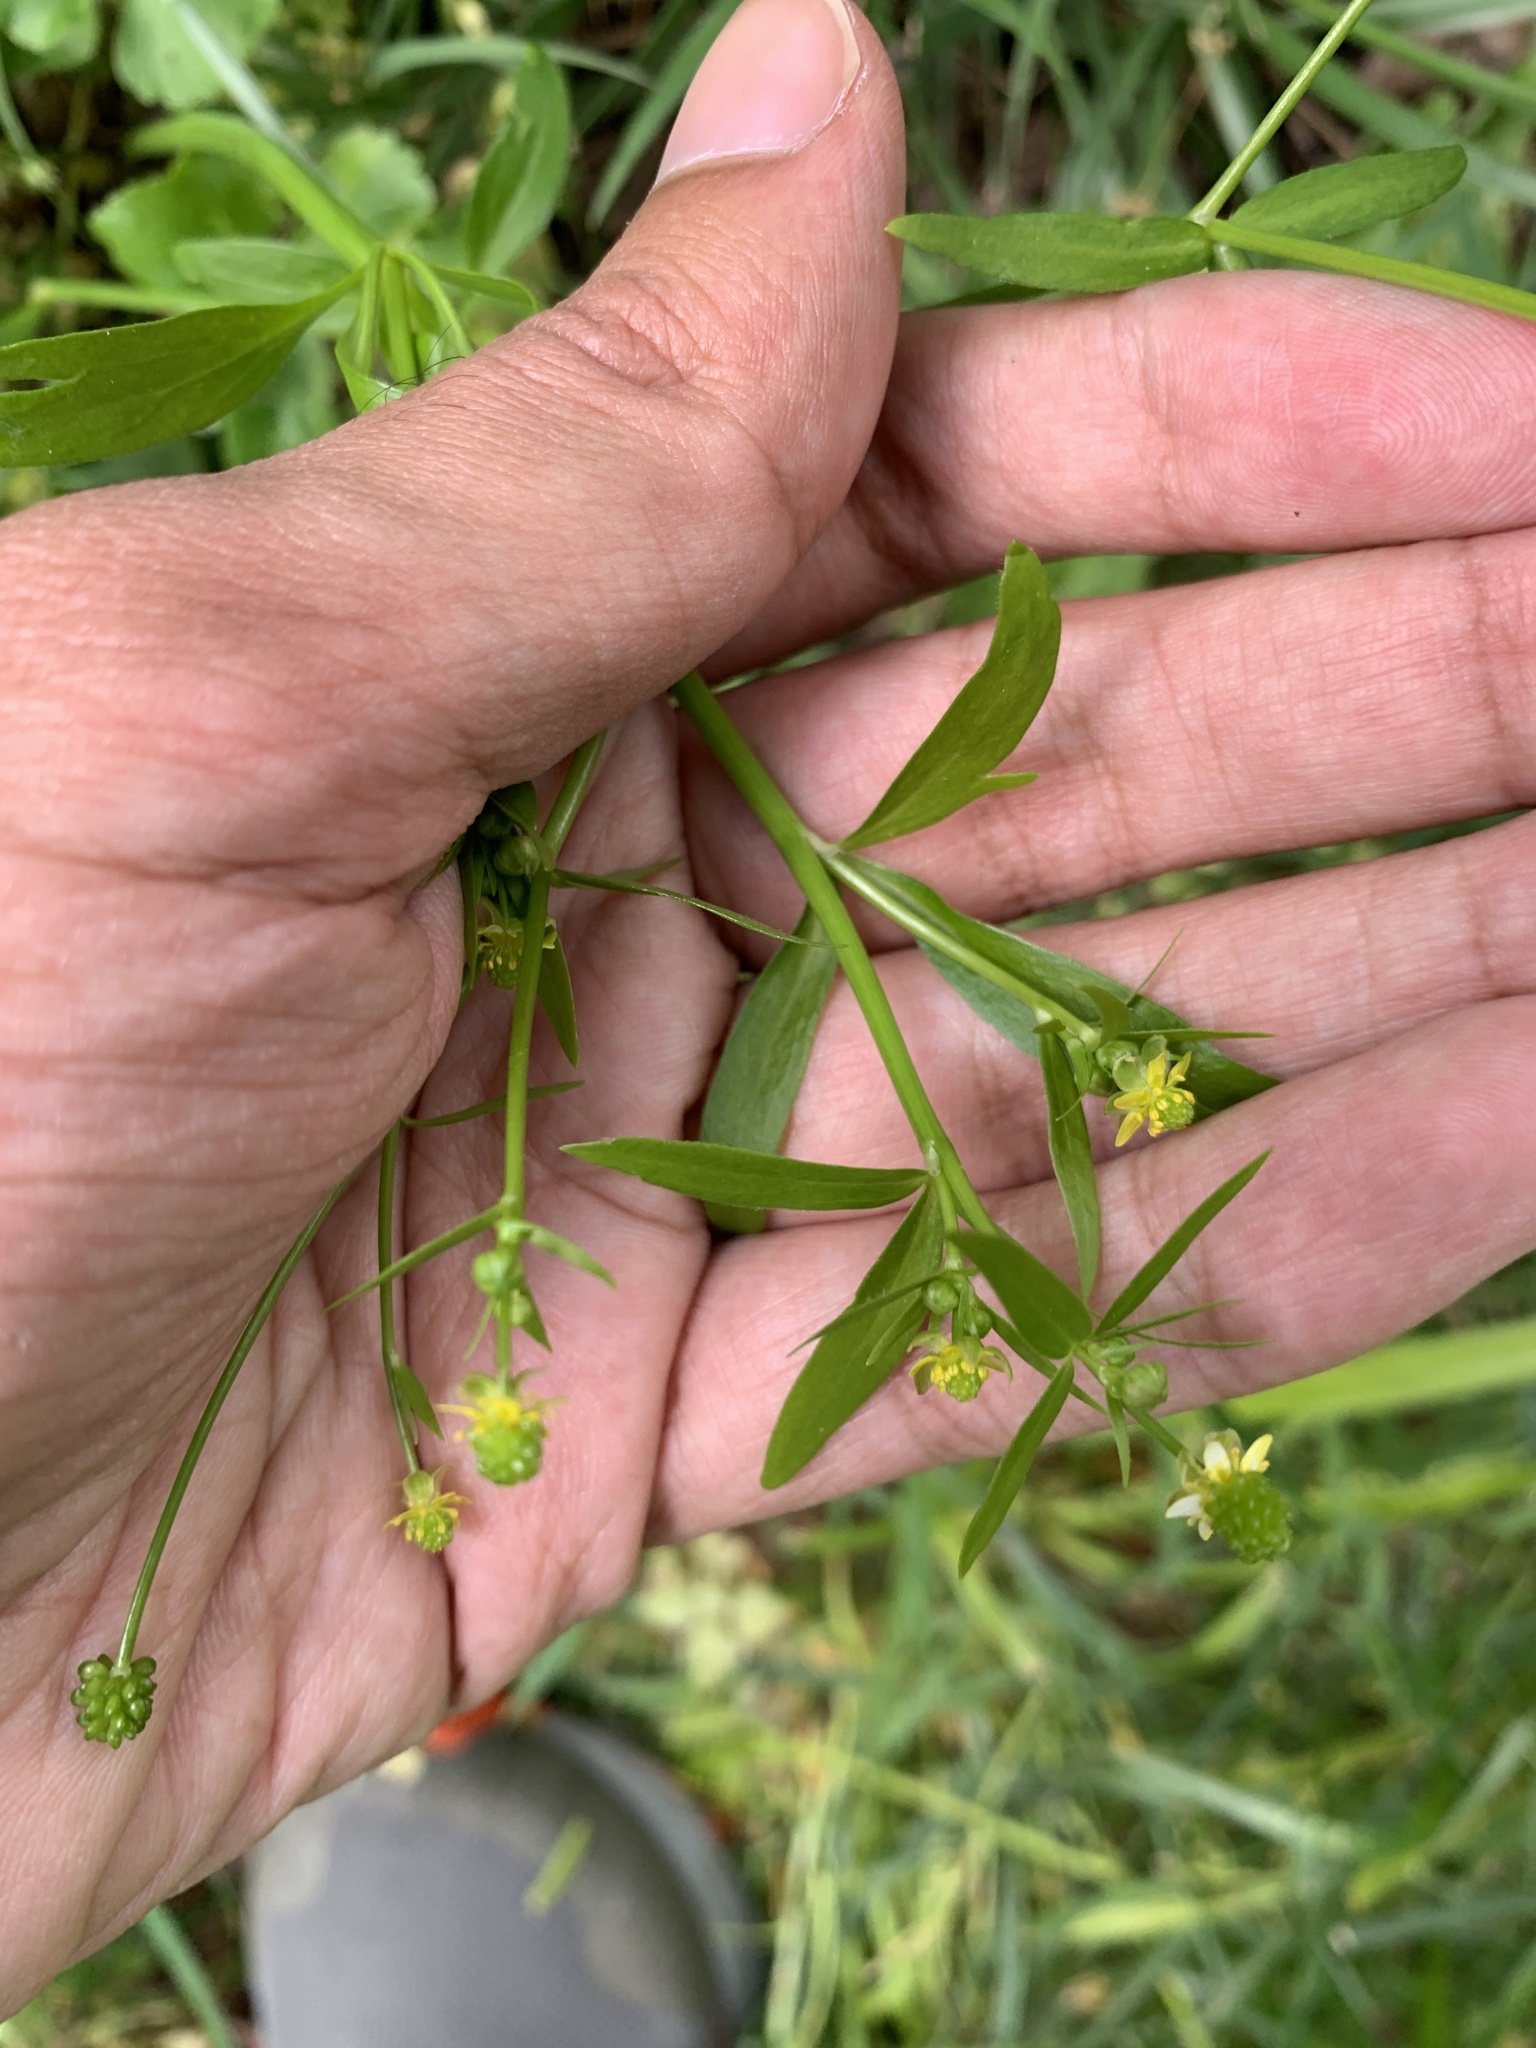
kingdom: Plantae
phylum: Tracheophyta
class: Magnoliopsida
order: Ranunculales
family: Ranunculaceae
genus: Ranunculus
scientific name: Ranunculus abortivus
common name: Early wood buttercup
